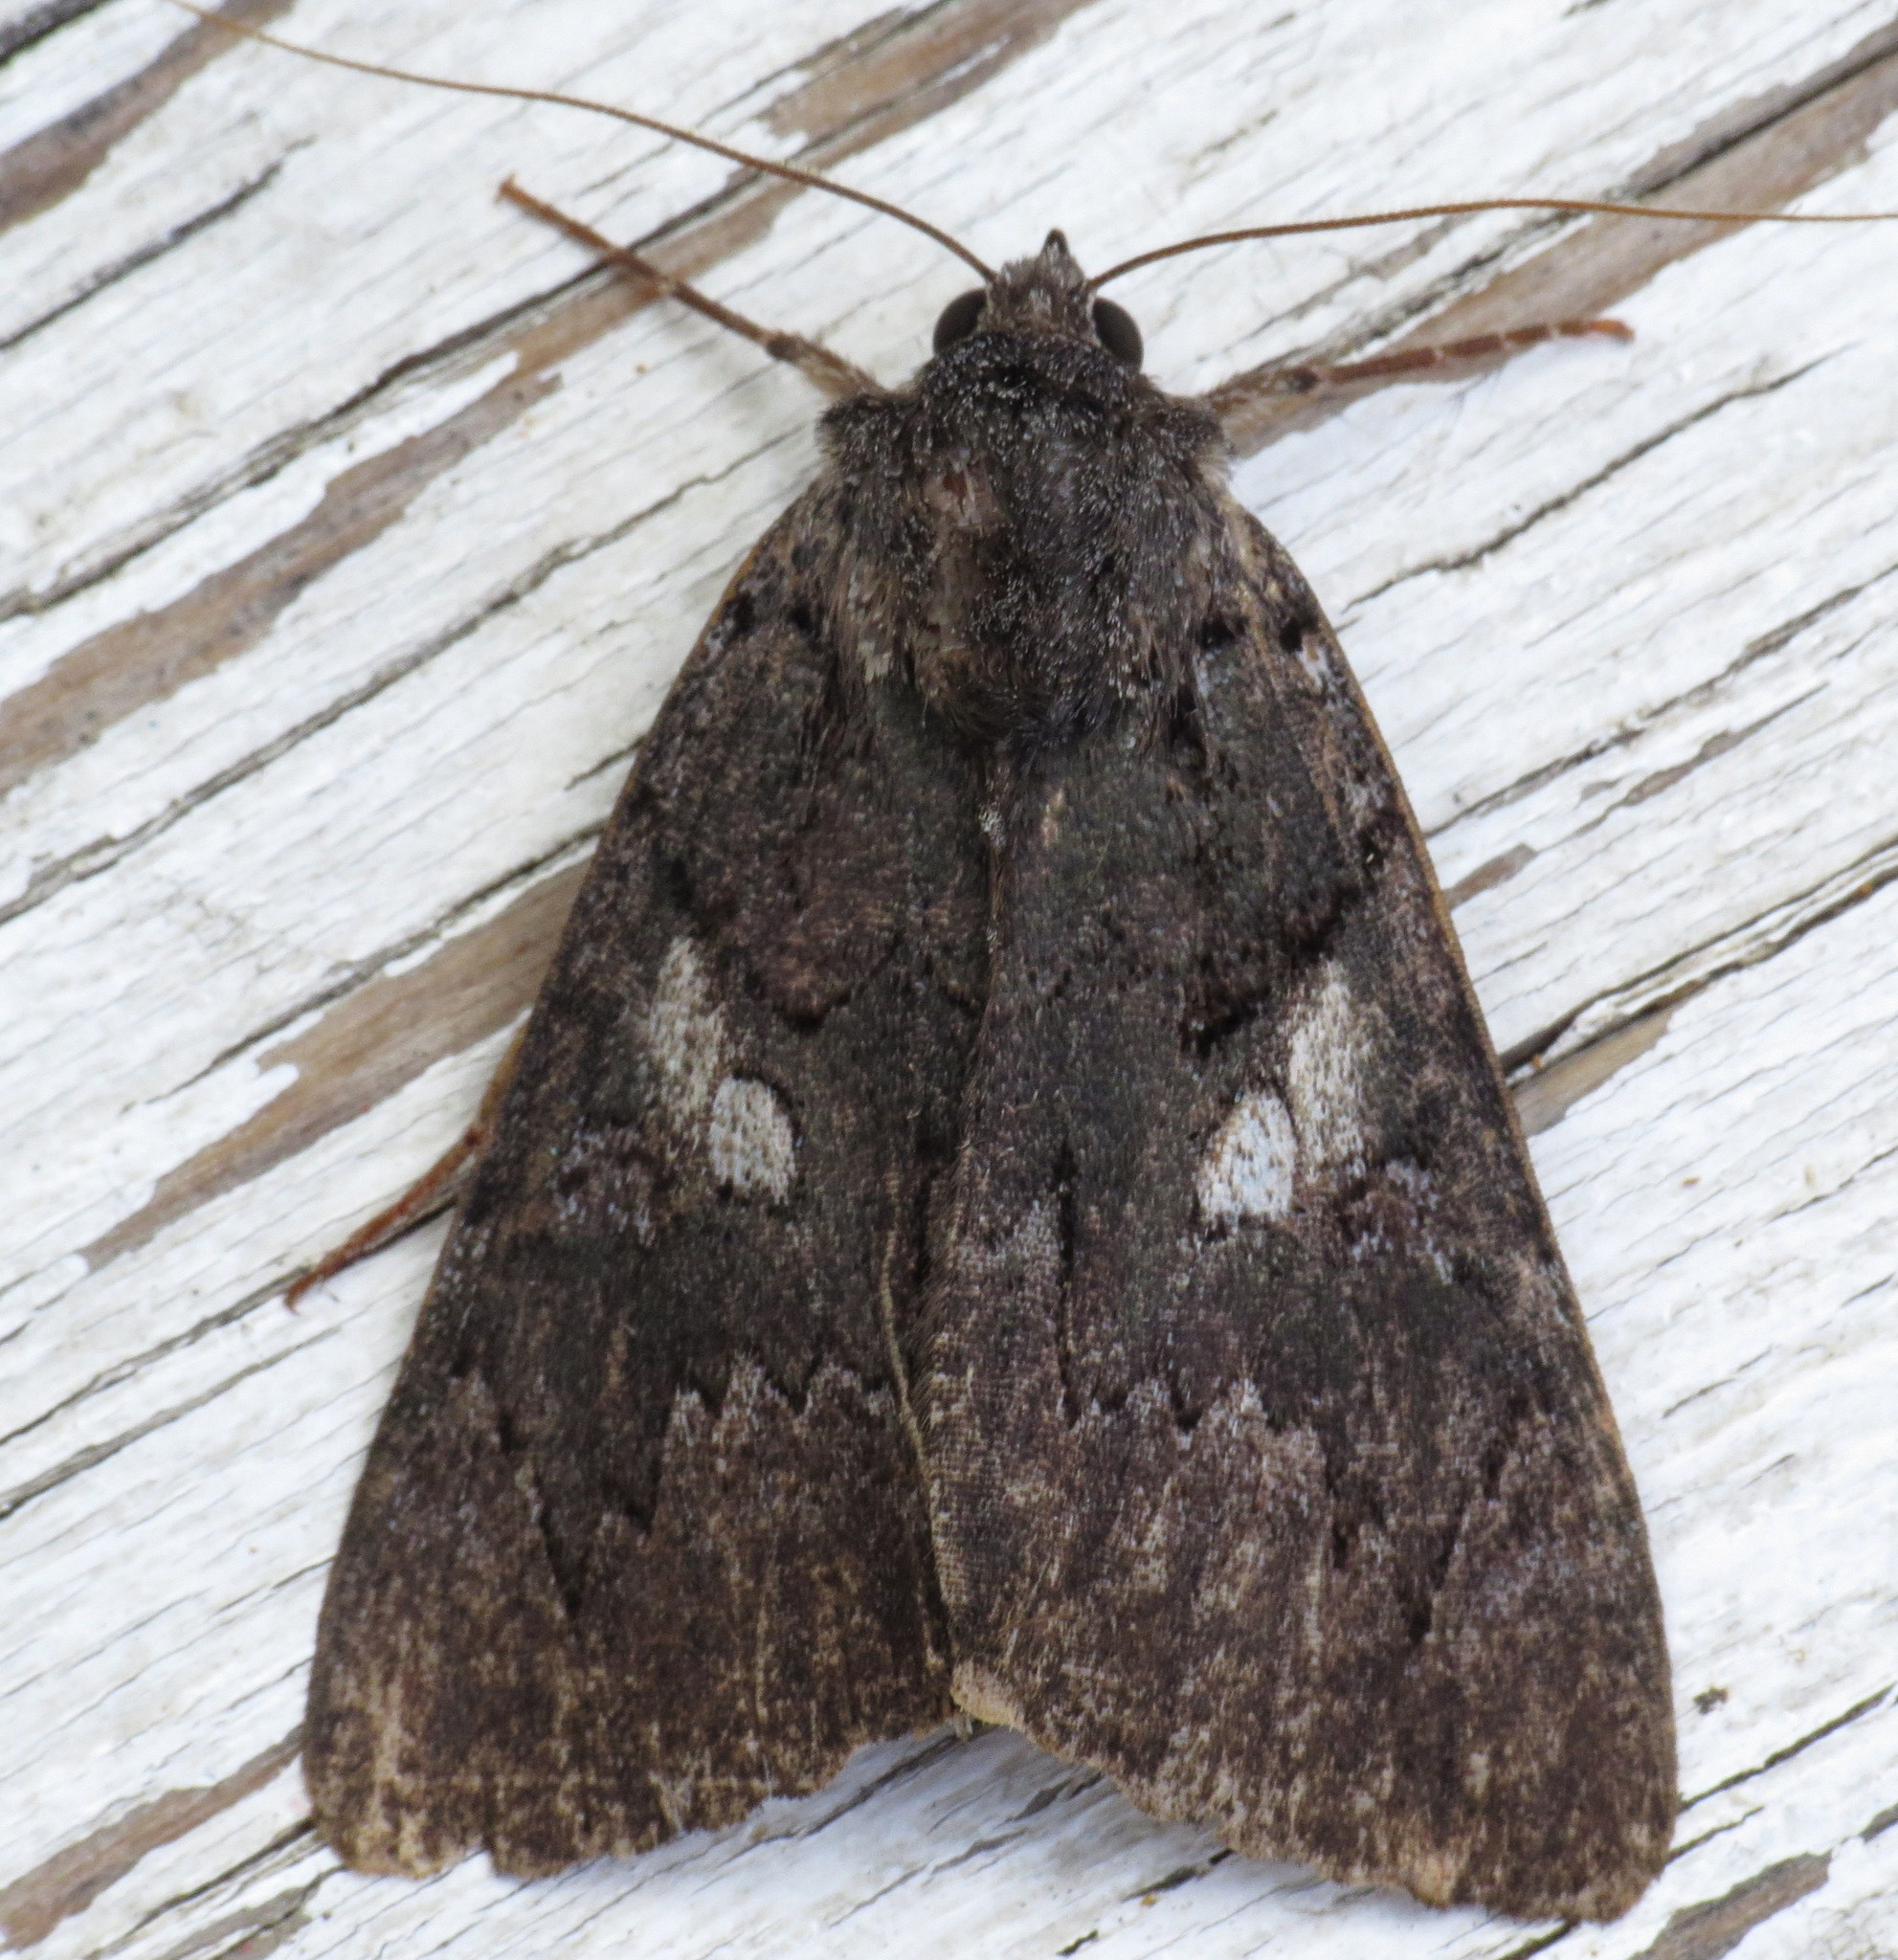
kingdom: Animalia
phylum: Arthropoda
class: Insecta
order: Lepidoptera
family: Erebidae
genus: Catocala
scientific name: Catocala antinympha
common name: Sweetfern underwing
